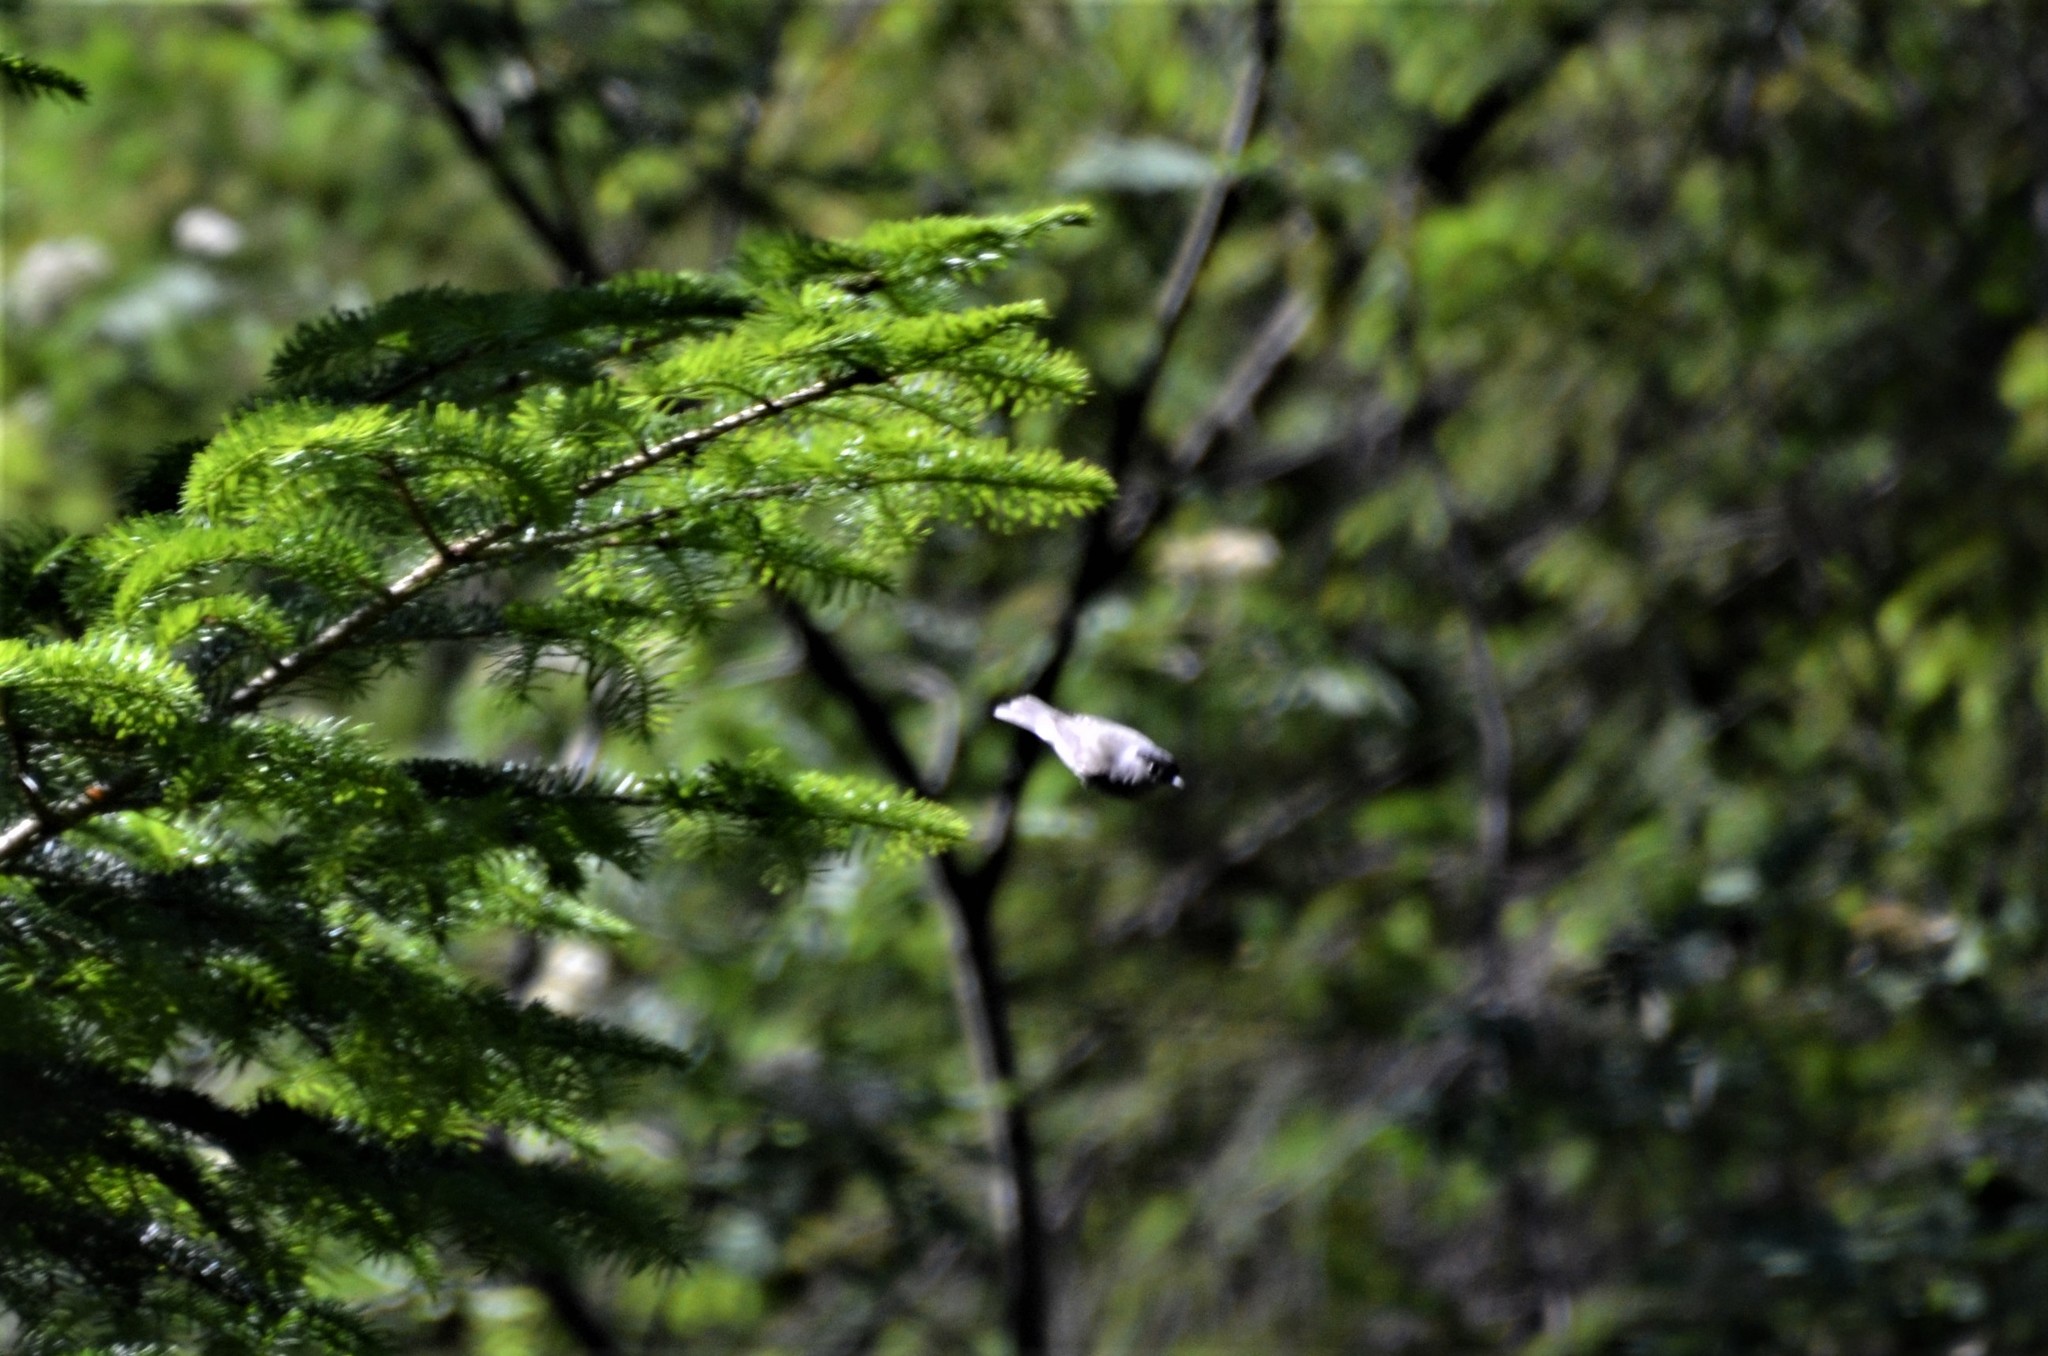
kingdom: Animalia
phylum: Chordata
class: Aves
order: Passeriformes
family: Sylviidae
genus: Sylvia
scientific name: Sylvia atricapilla
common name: Eurasian blackcap
